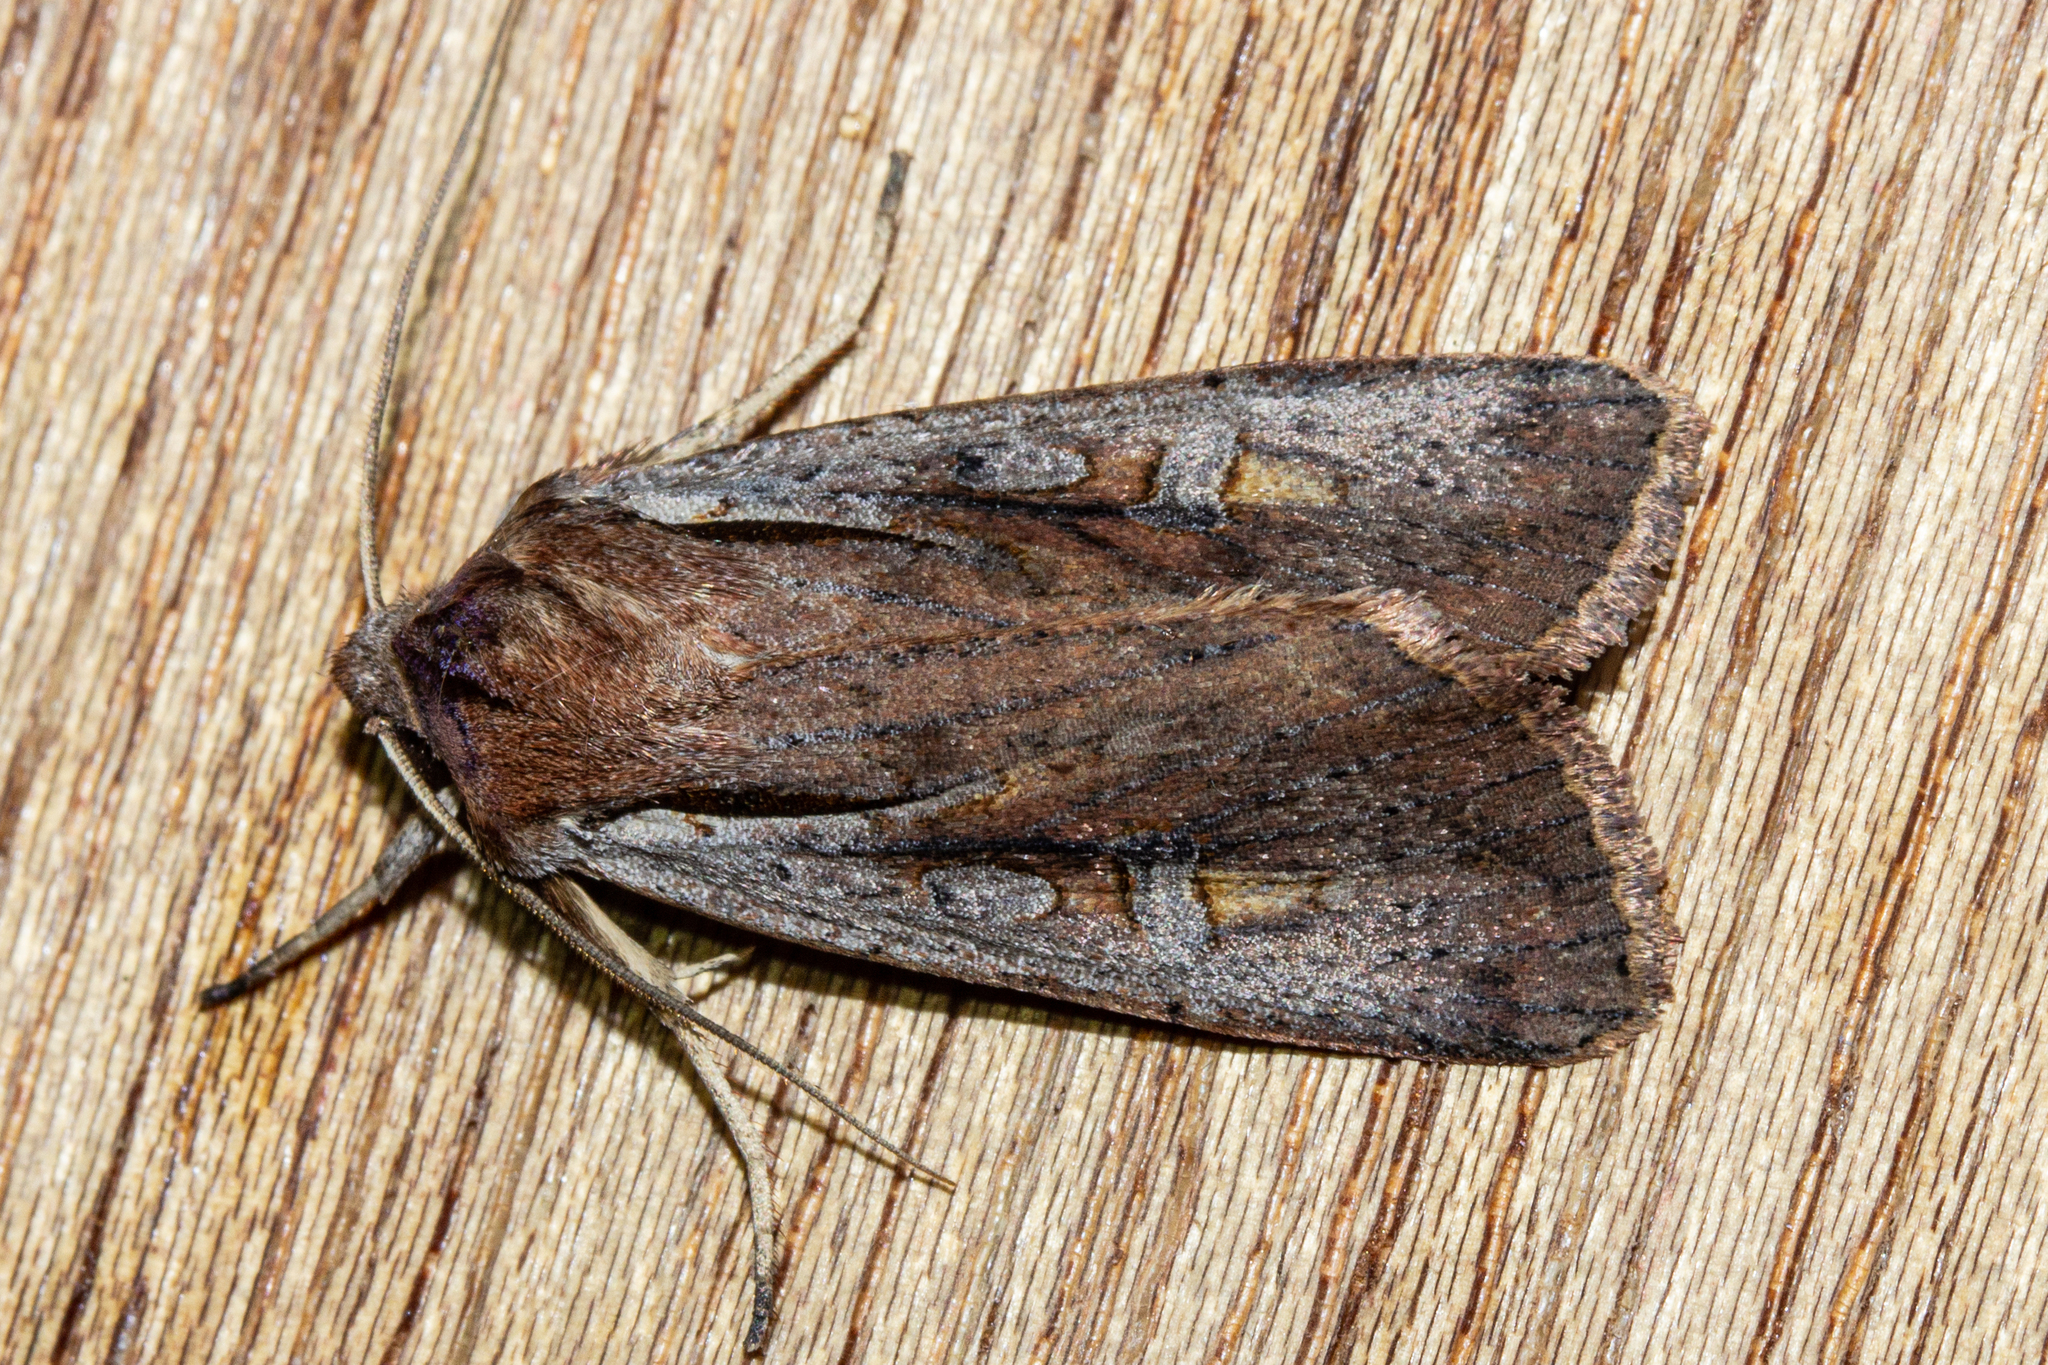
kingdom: Animalia
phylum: Arthropoda
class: Insecta
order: Lepidoptera
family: Noctuidae
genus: Ichneutica
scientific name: Ichneutica atristriga
